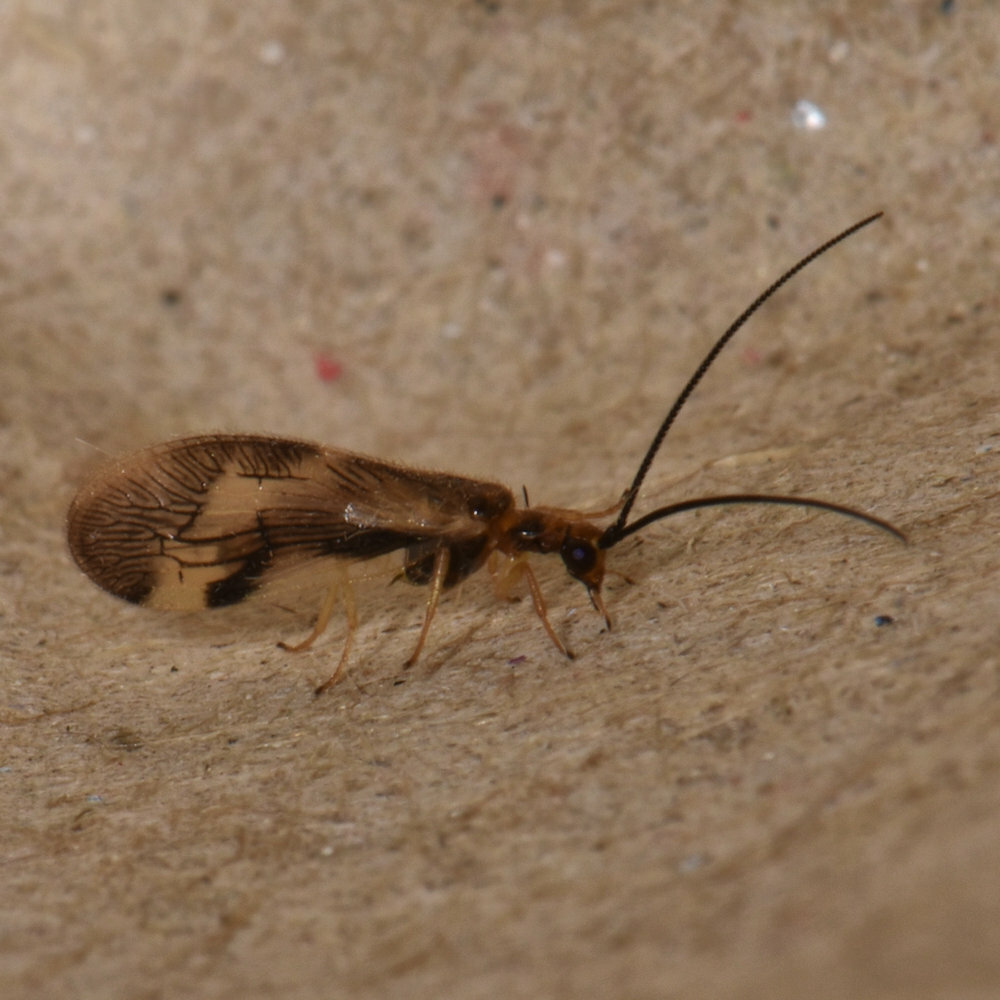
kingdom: Animalia
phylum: Arthropoda
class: Insecta
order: Neuroptera
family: Sisyridae
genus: Climacia
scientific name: Climacia areolaris
